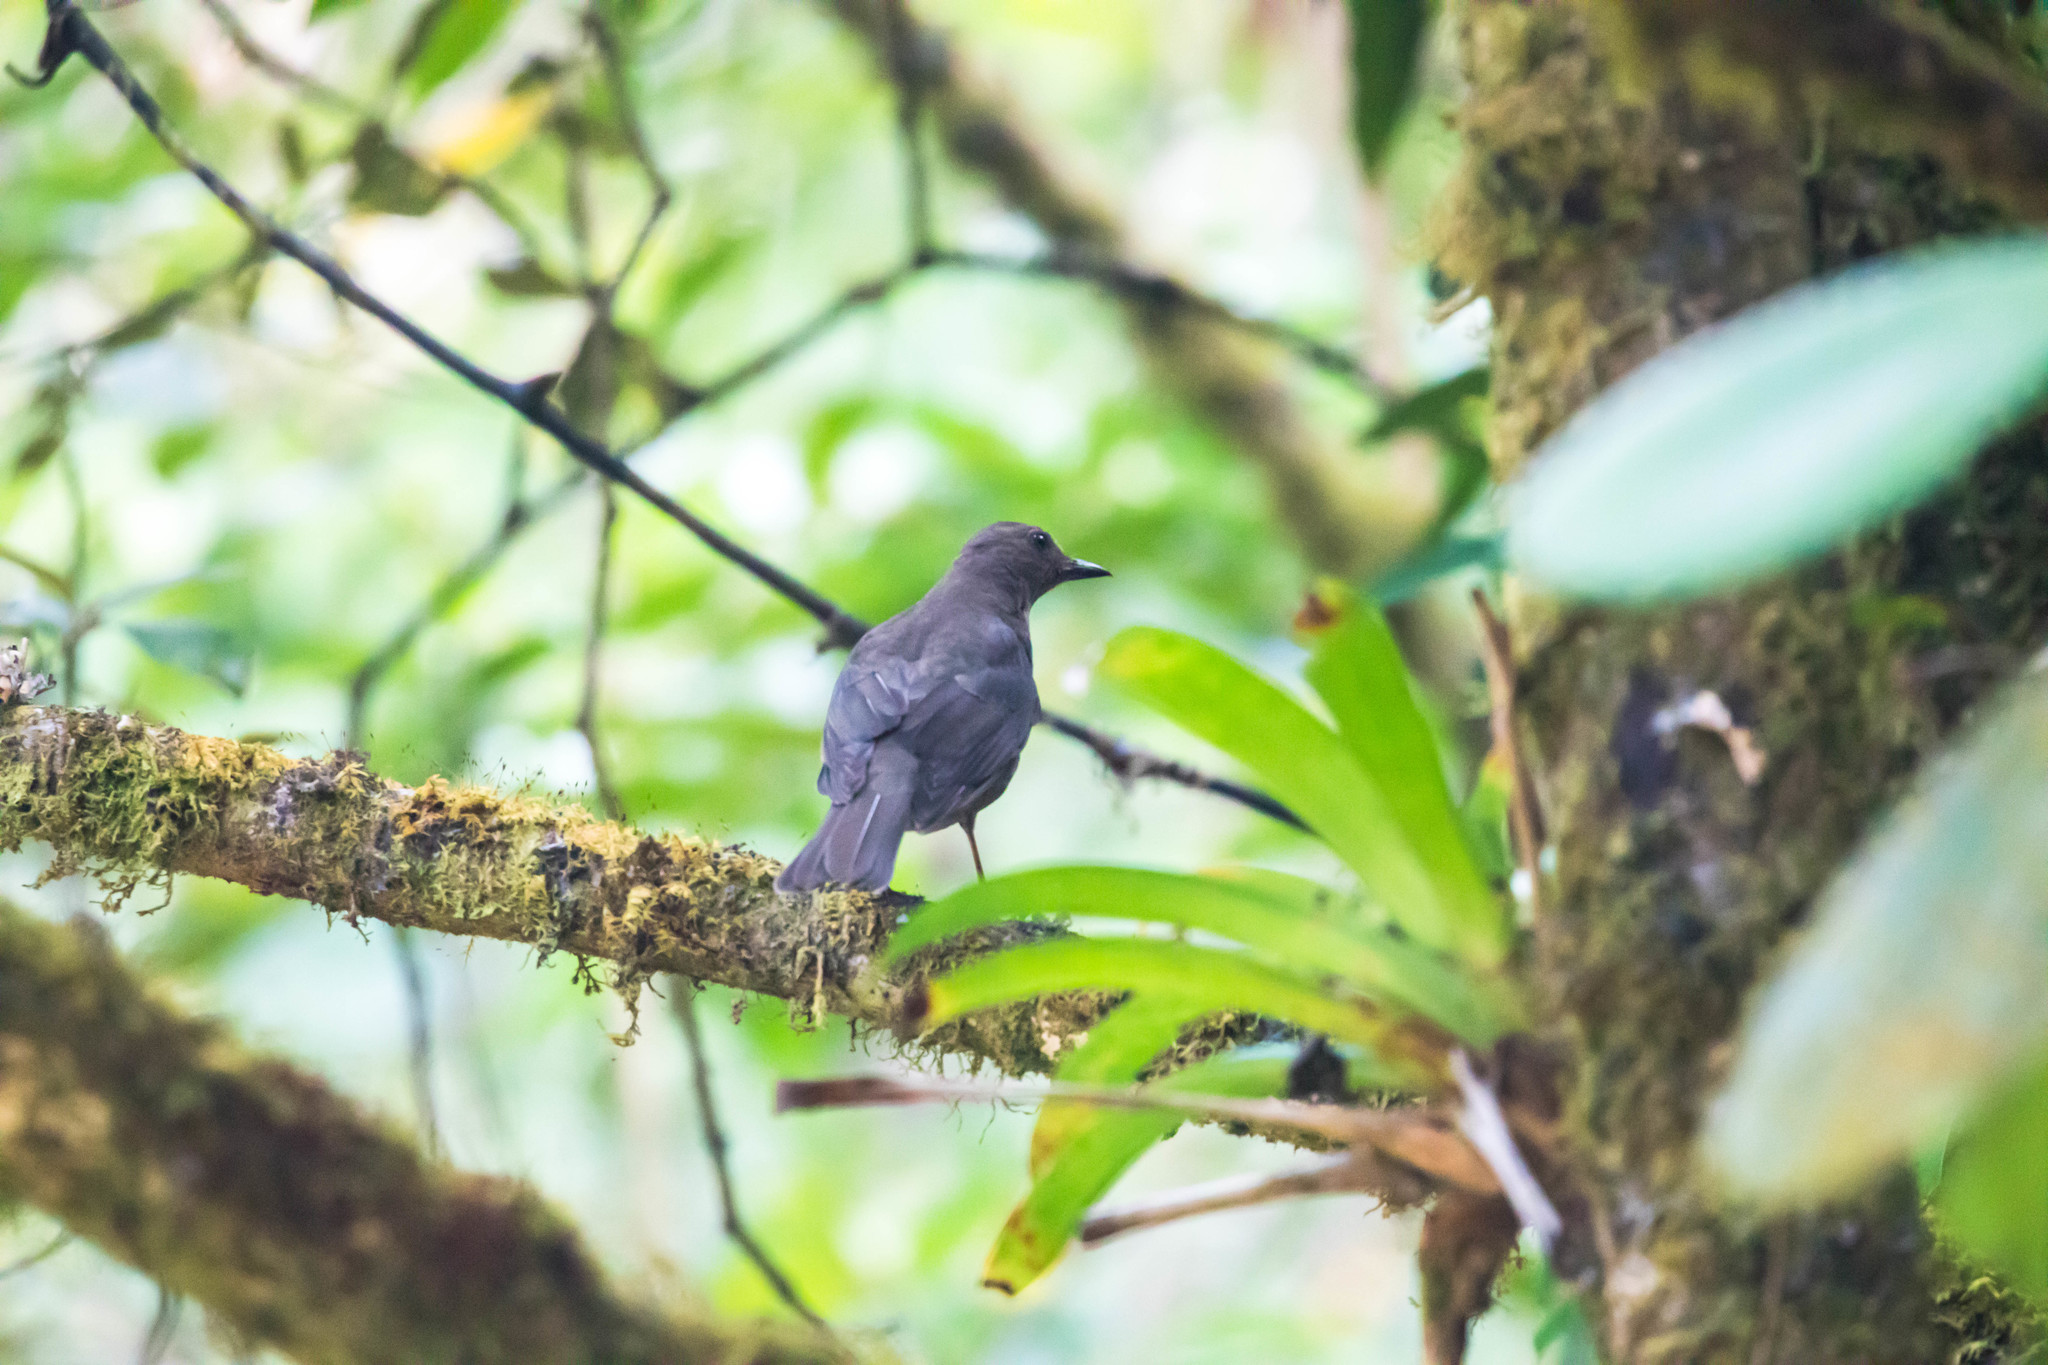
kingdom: Animalia
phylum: Chordata
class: Aves
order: Passeriformes
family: Turdidae
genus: Turdus
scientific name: Turdus plebejus
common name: Mountain thrush
